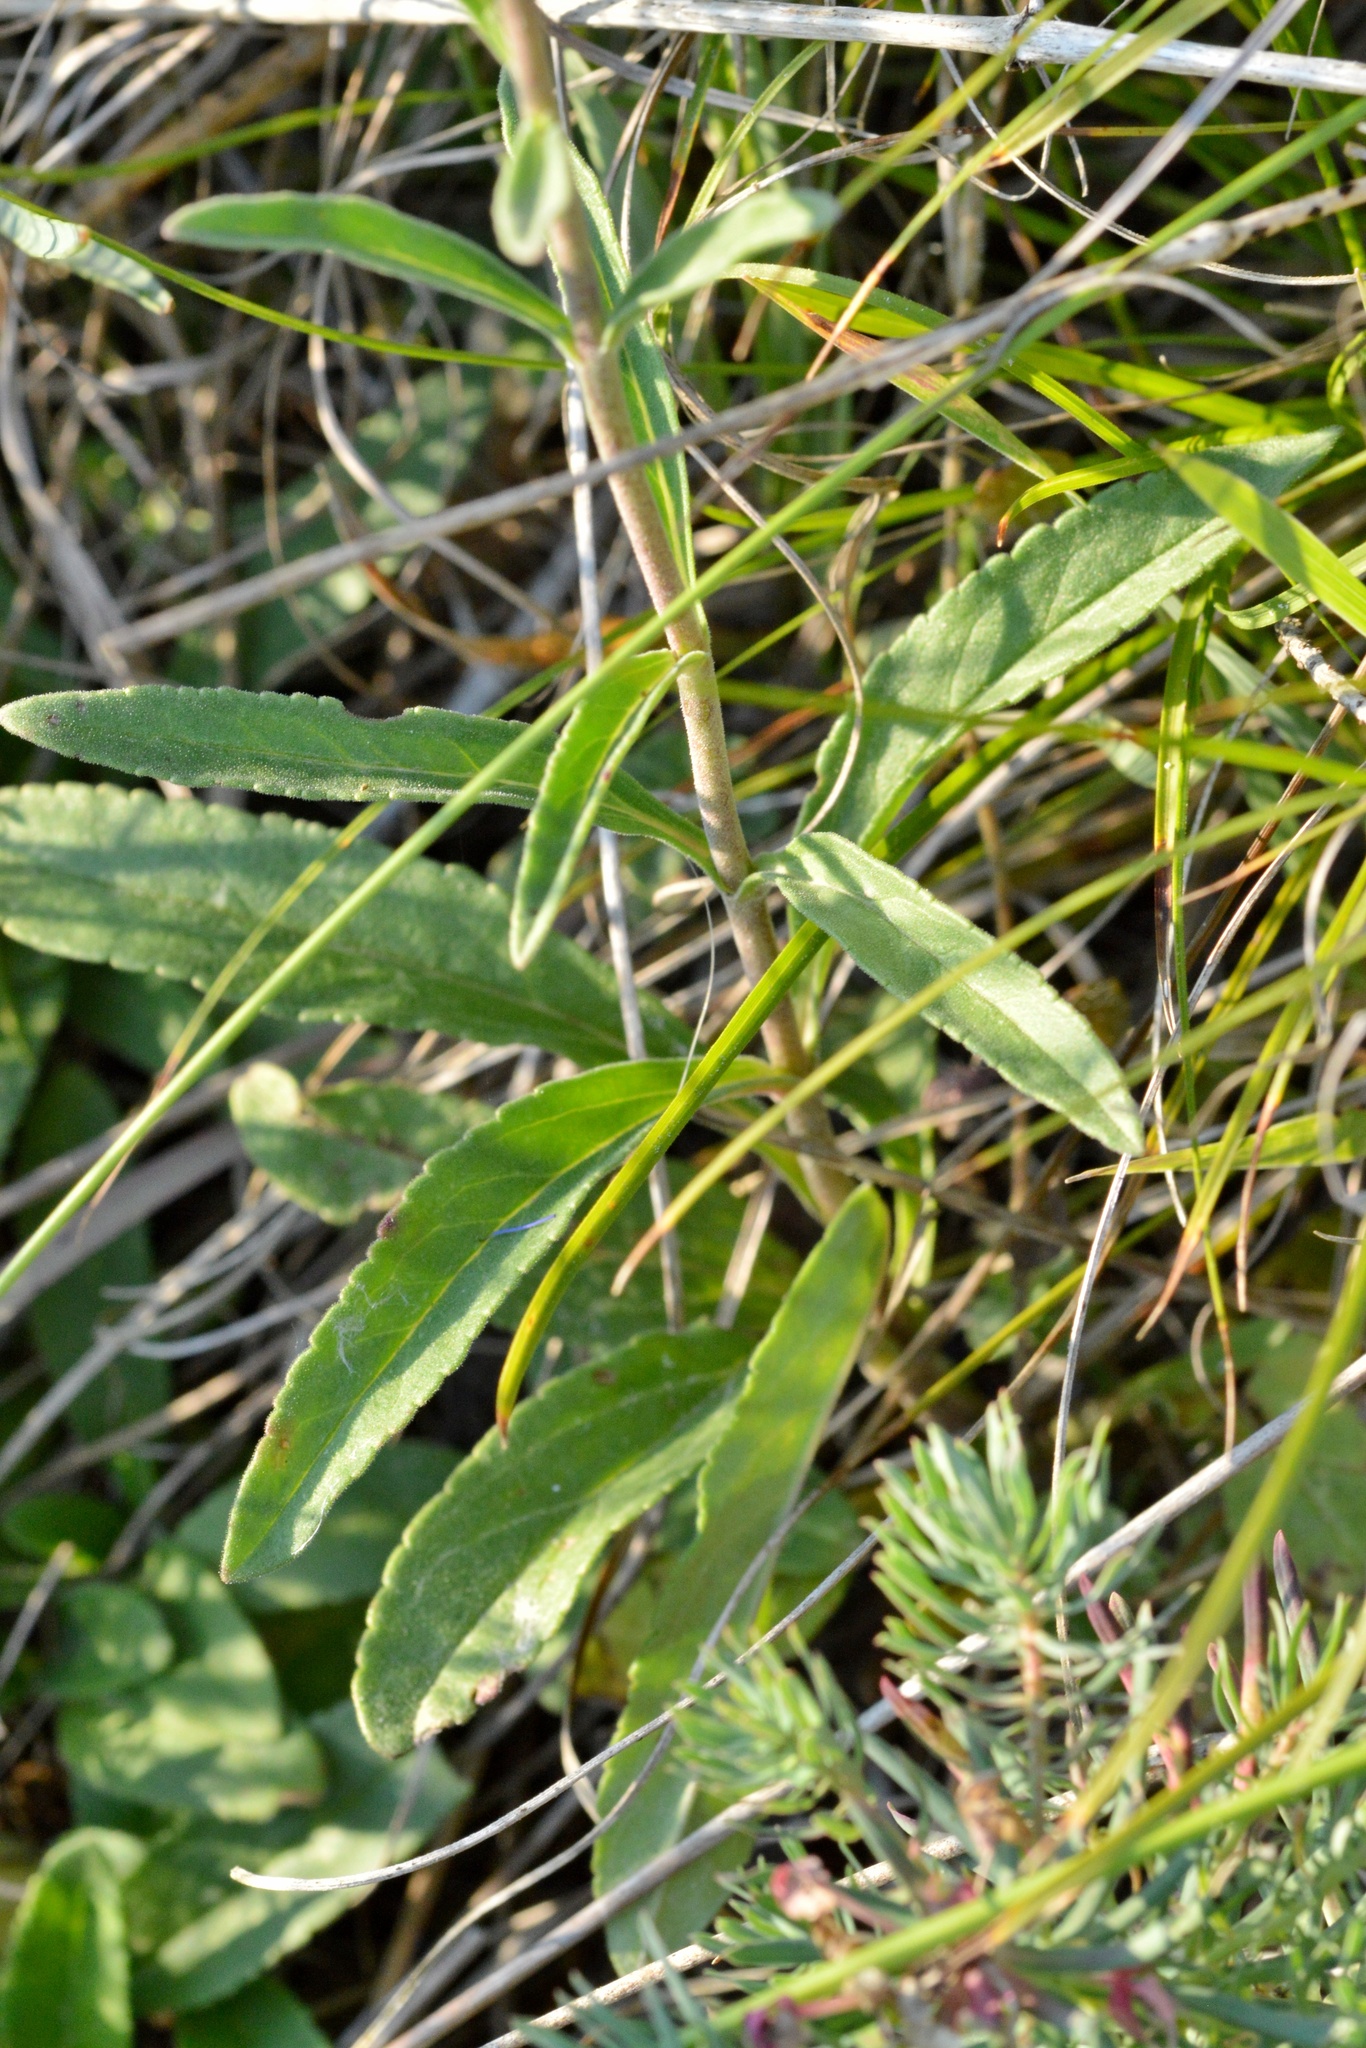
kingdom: Plantae
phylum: Tracheophyta
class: Magnoliopsida
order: Lamiales
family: Plantaginaceae
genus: Veronica
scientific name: Veronica spicata
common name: Spiked speedwell
